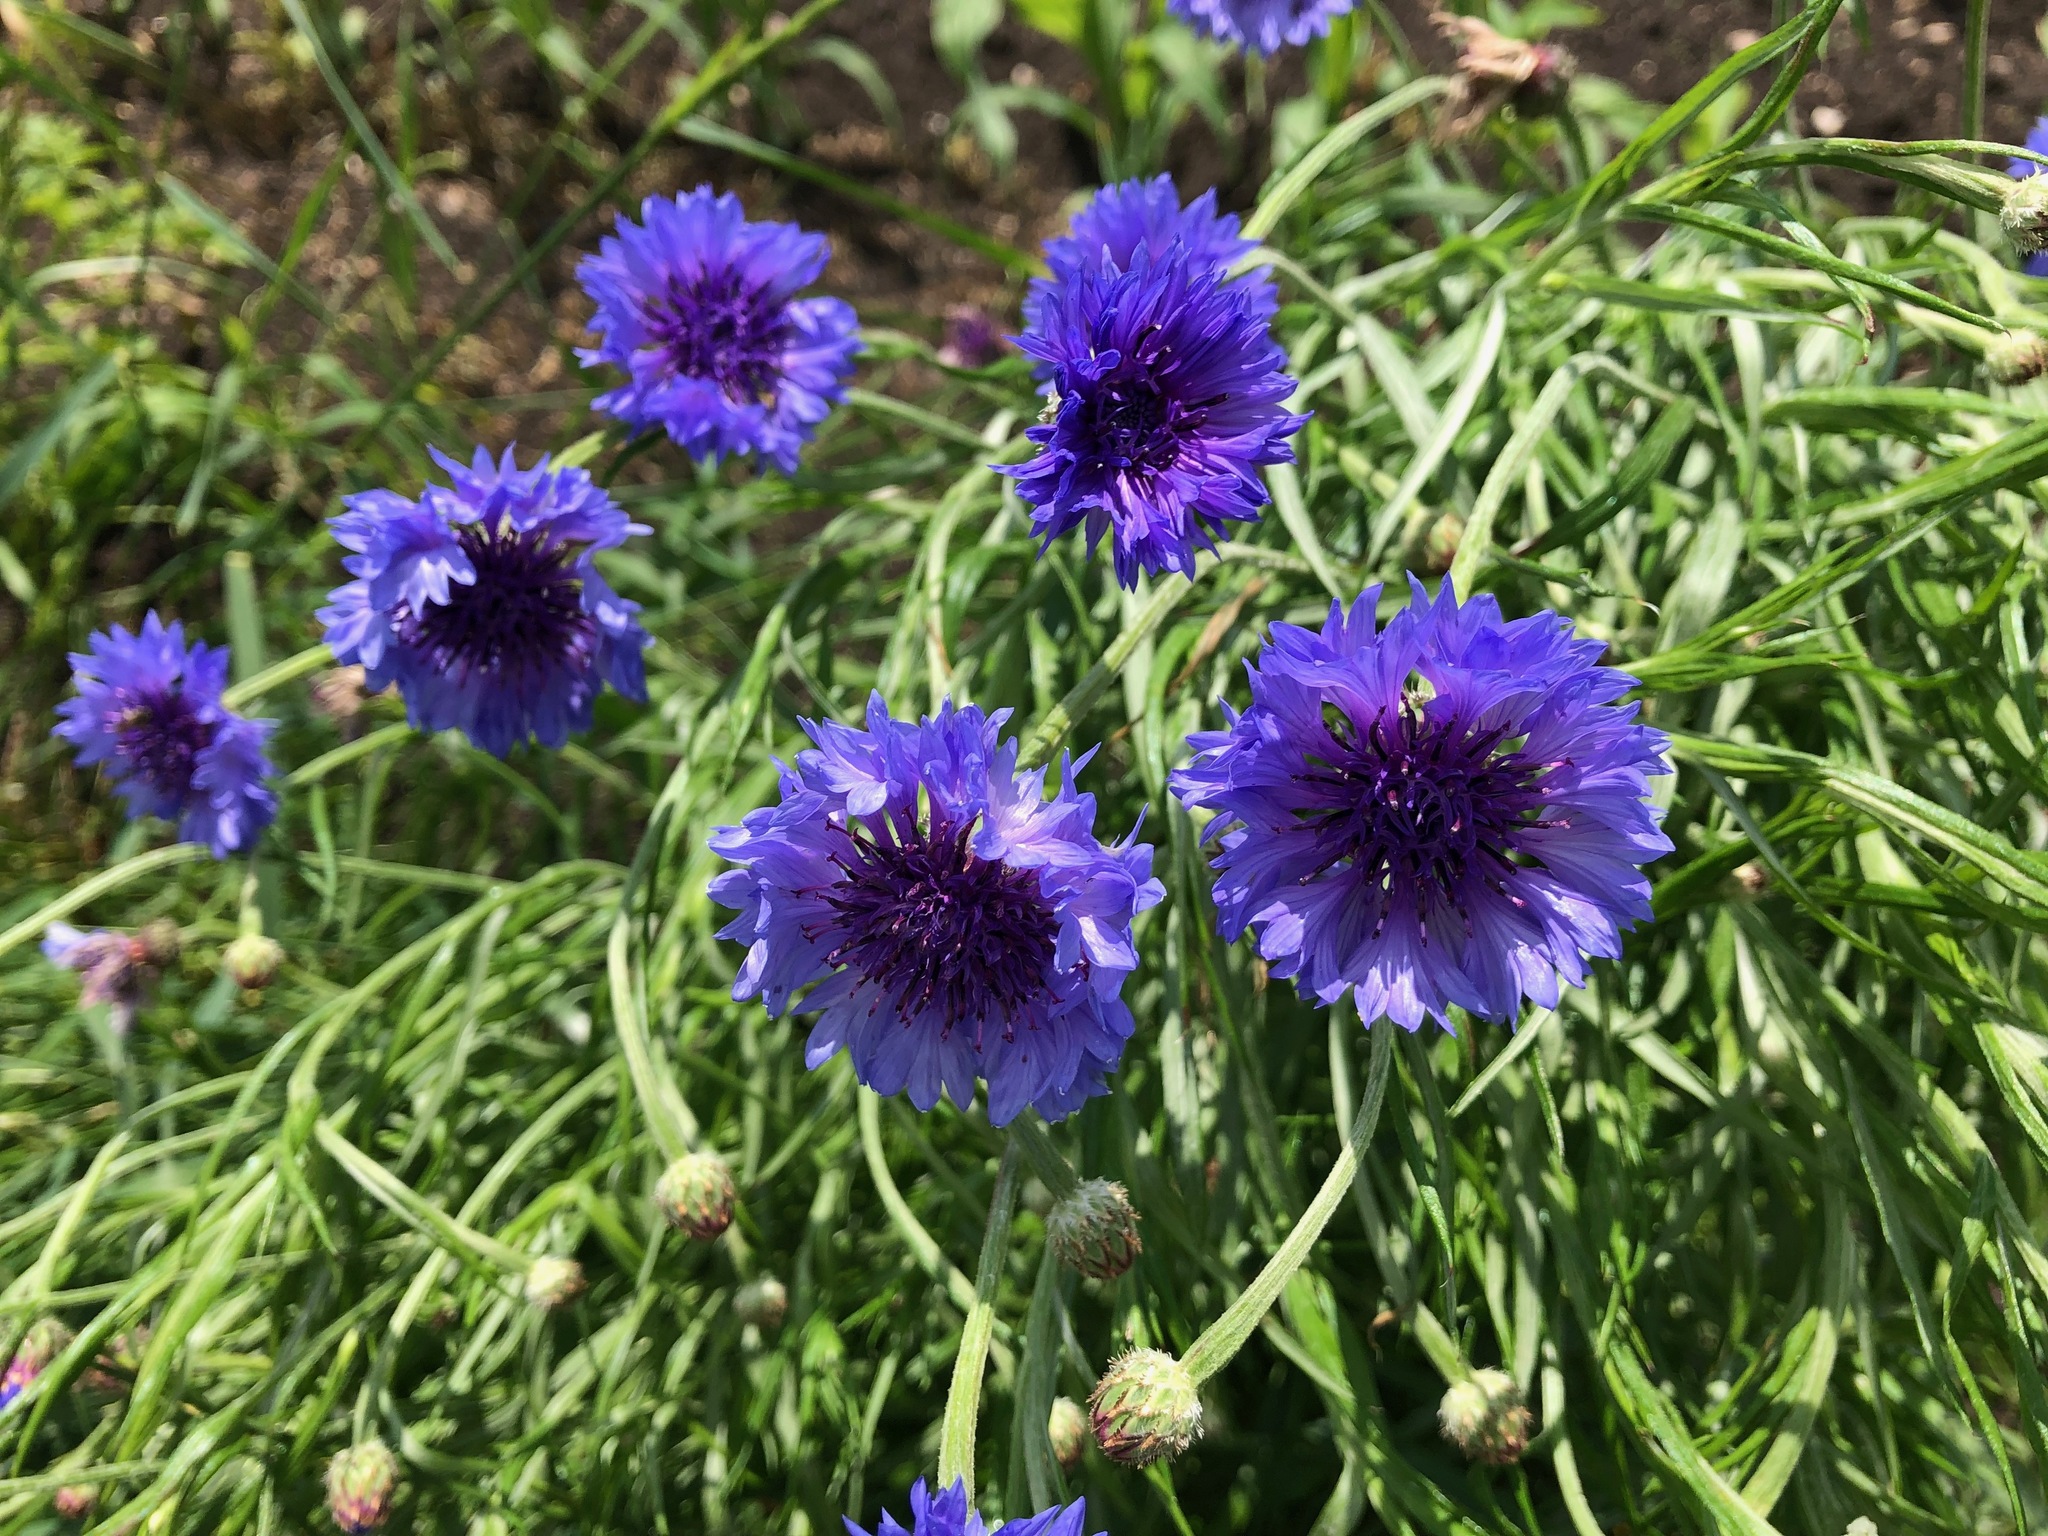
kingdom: Plantae
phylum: Tracheophyta
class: Magnoliopsida
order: Asterales
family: Asteraceae
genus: Centaurea
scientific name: Centaurea cyanus
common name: Cornflower
